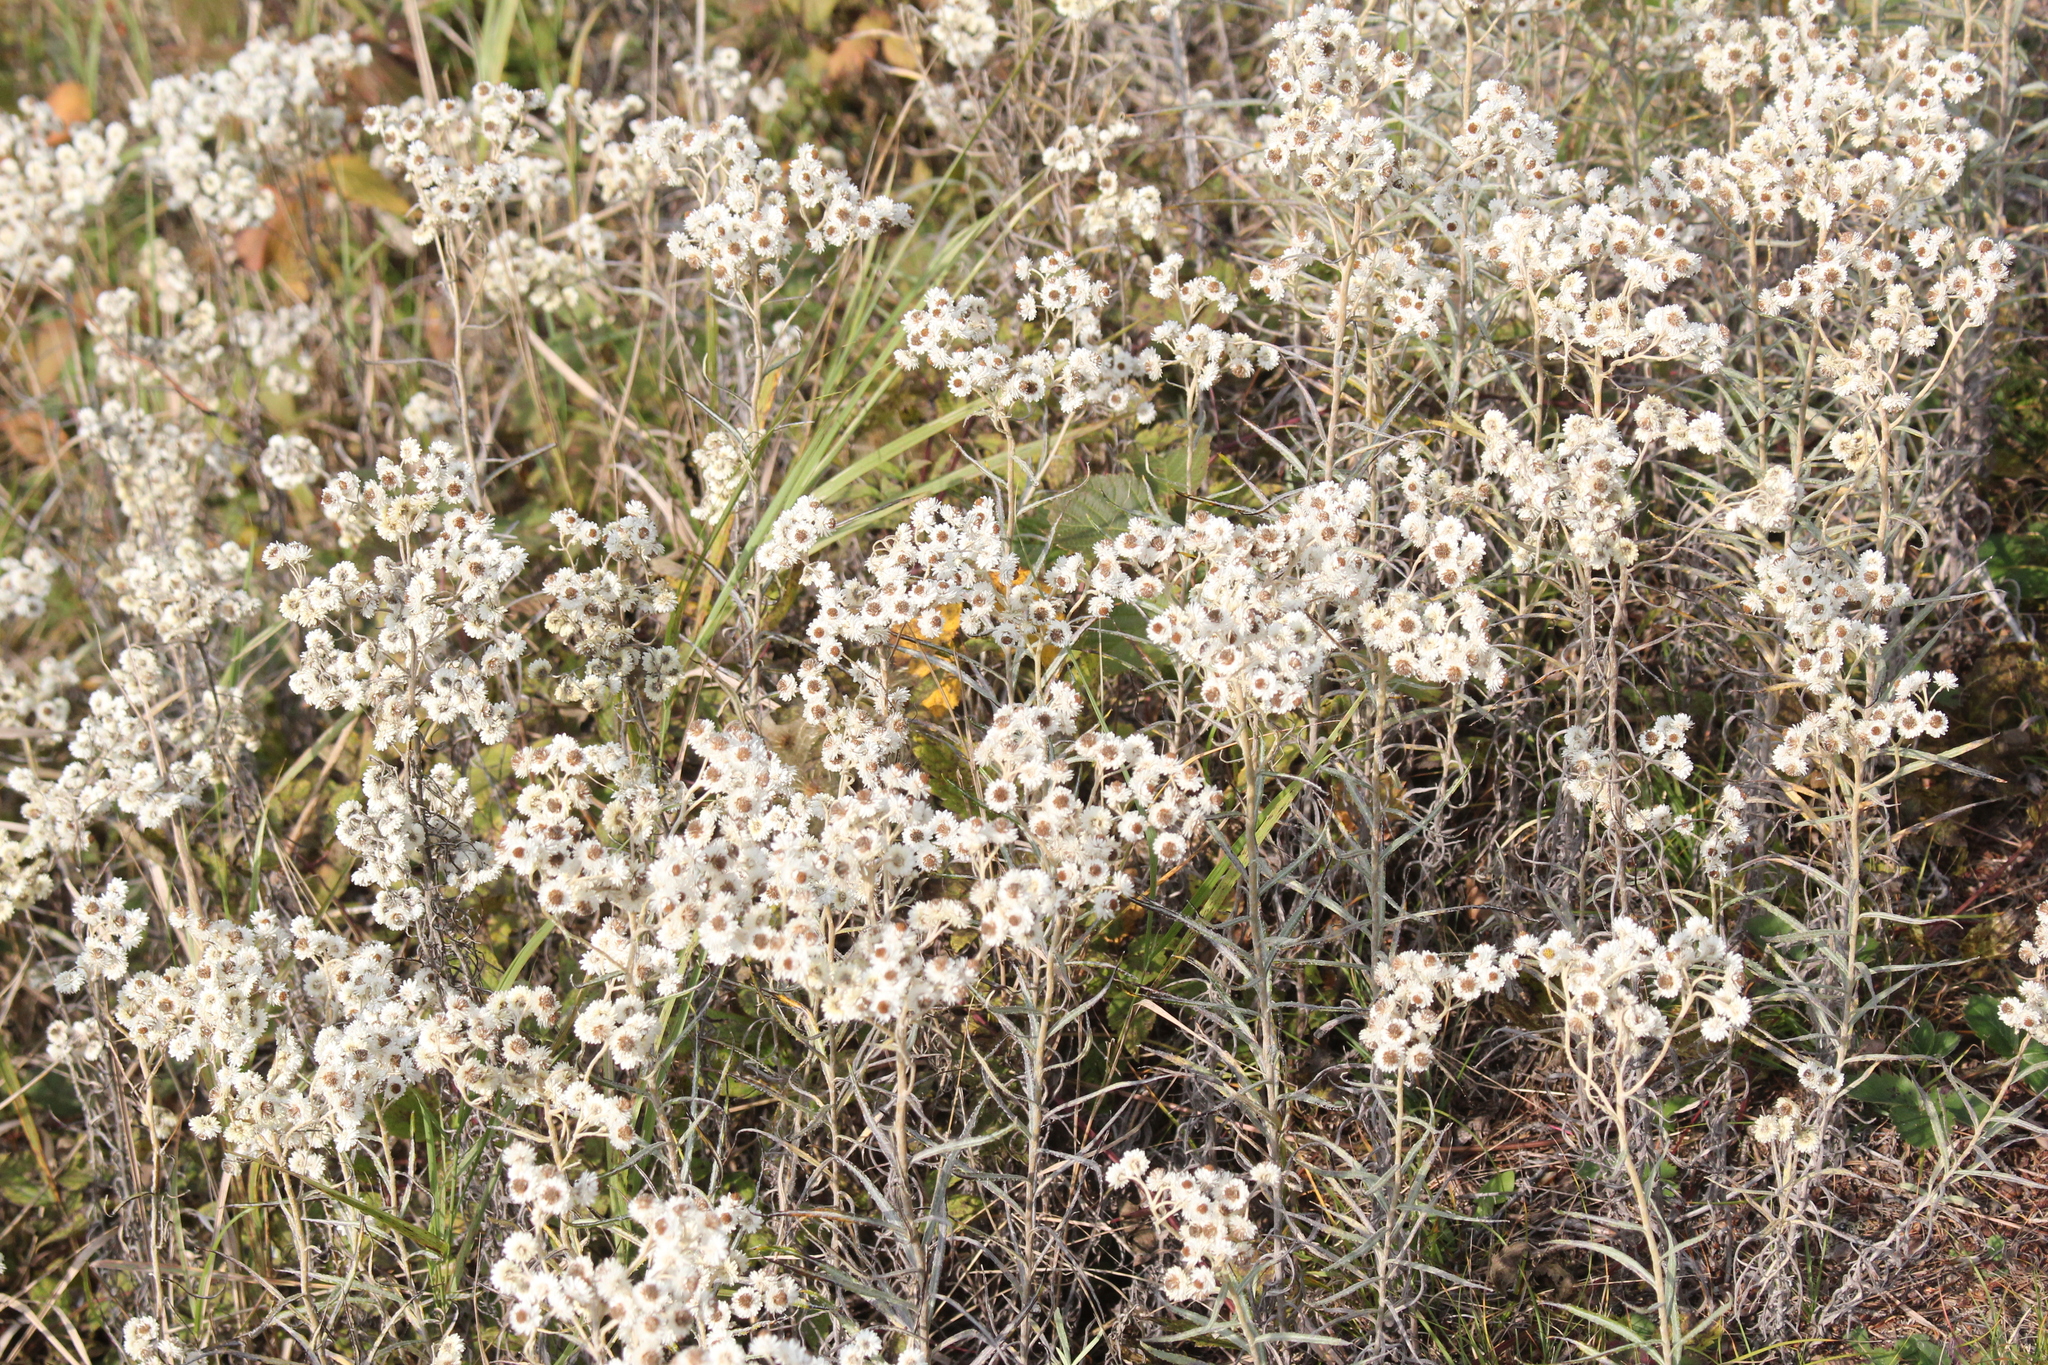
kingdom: Plantae
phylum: Tracheophyta
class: Magnoliopsida
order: Asterales
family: Asteraceae
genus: Anaphalis
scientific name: Anaphalis margaritacea
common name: Pearly everlasting
